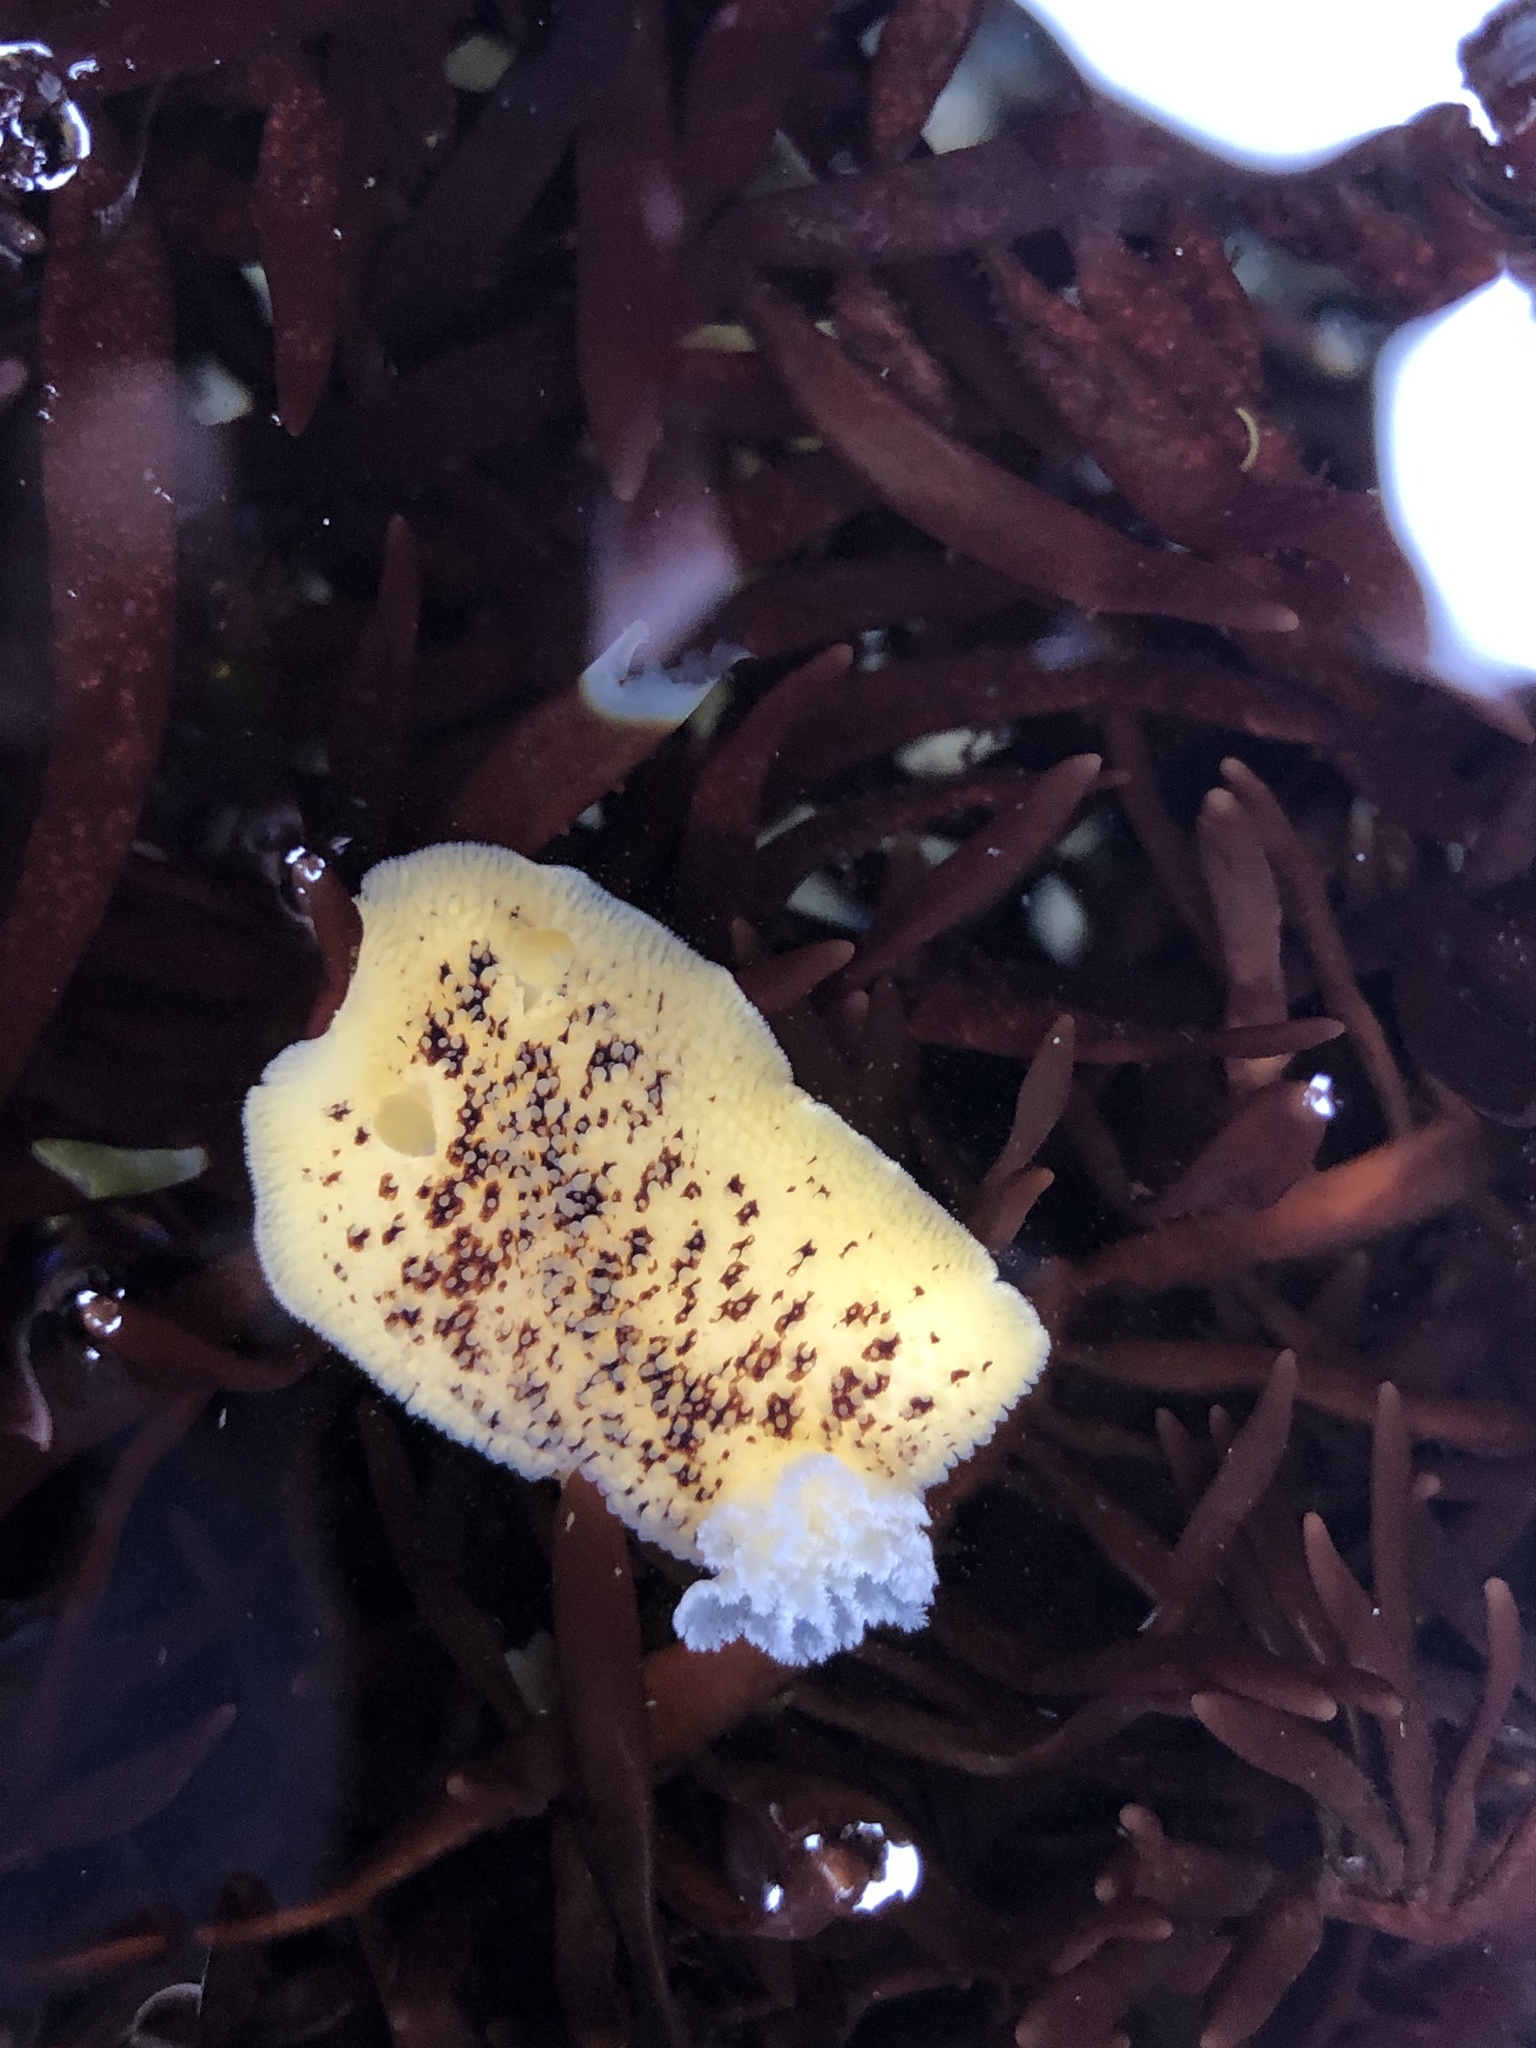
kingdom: Animalia
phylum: Mollusca
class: Gastropoda
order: Nudibranchia
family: Discodorididae
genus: Peltodoris
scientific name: Peltodoris nobilis
